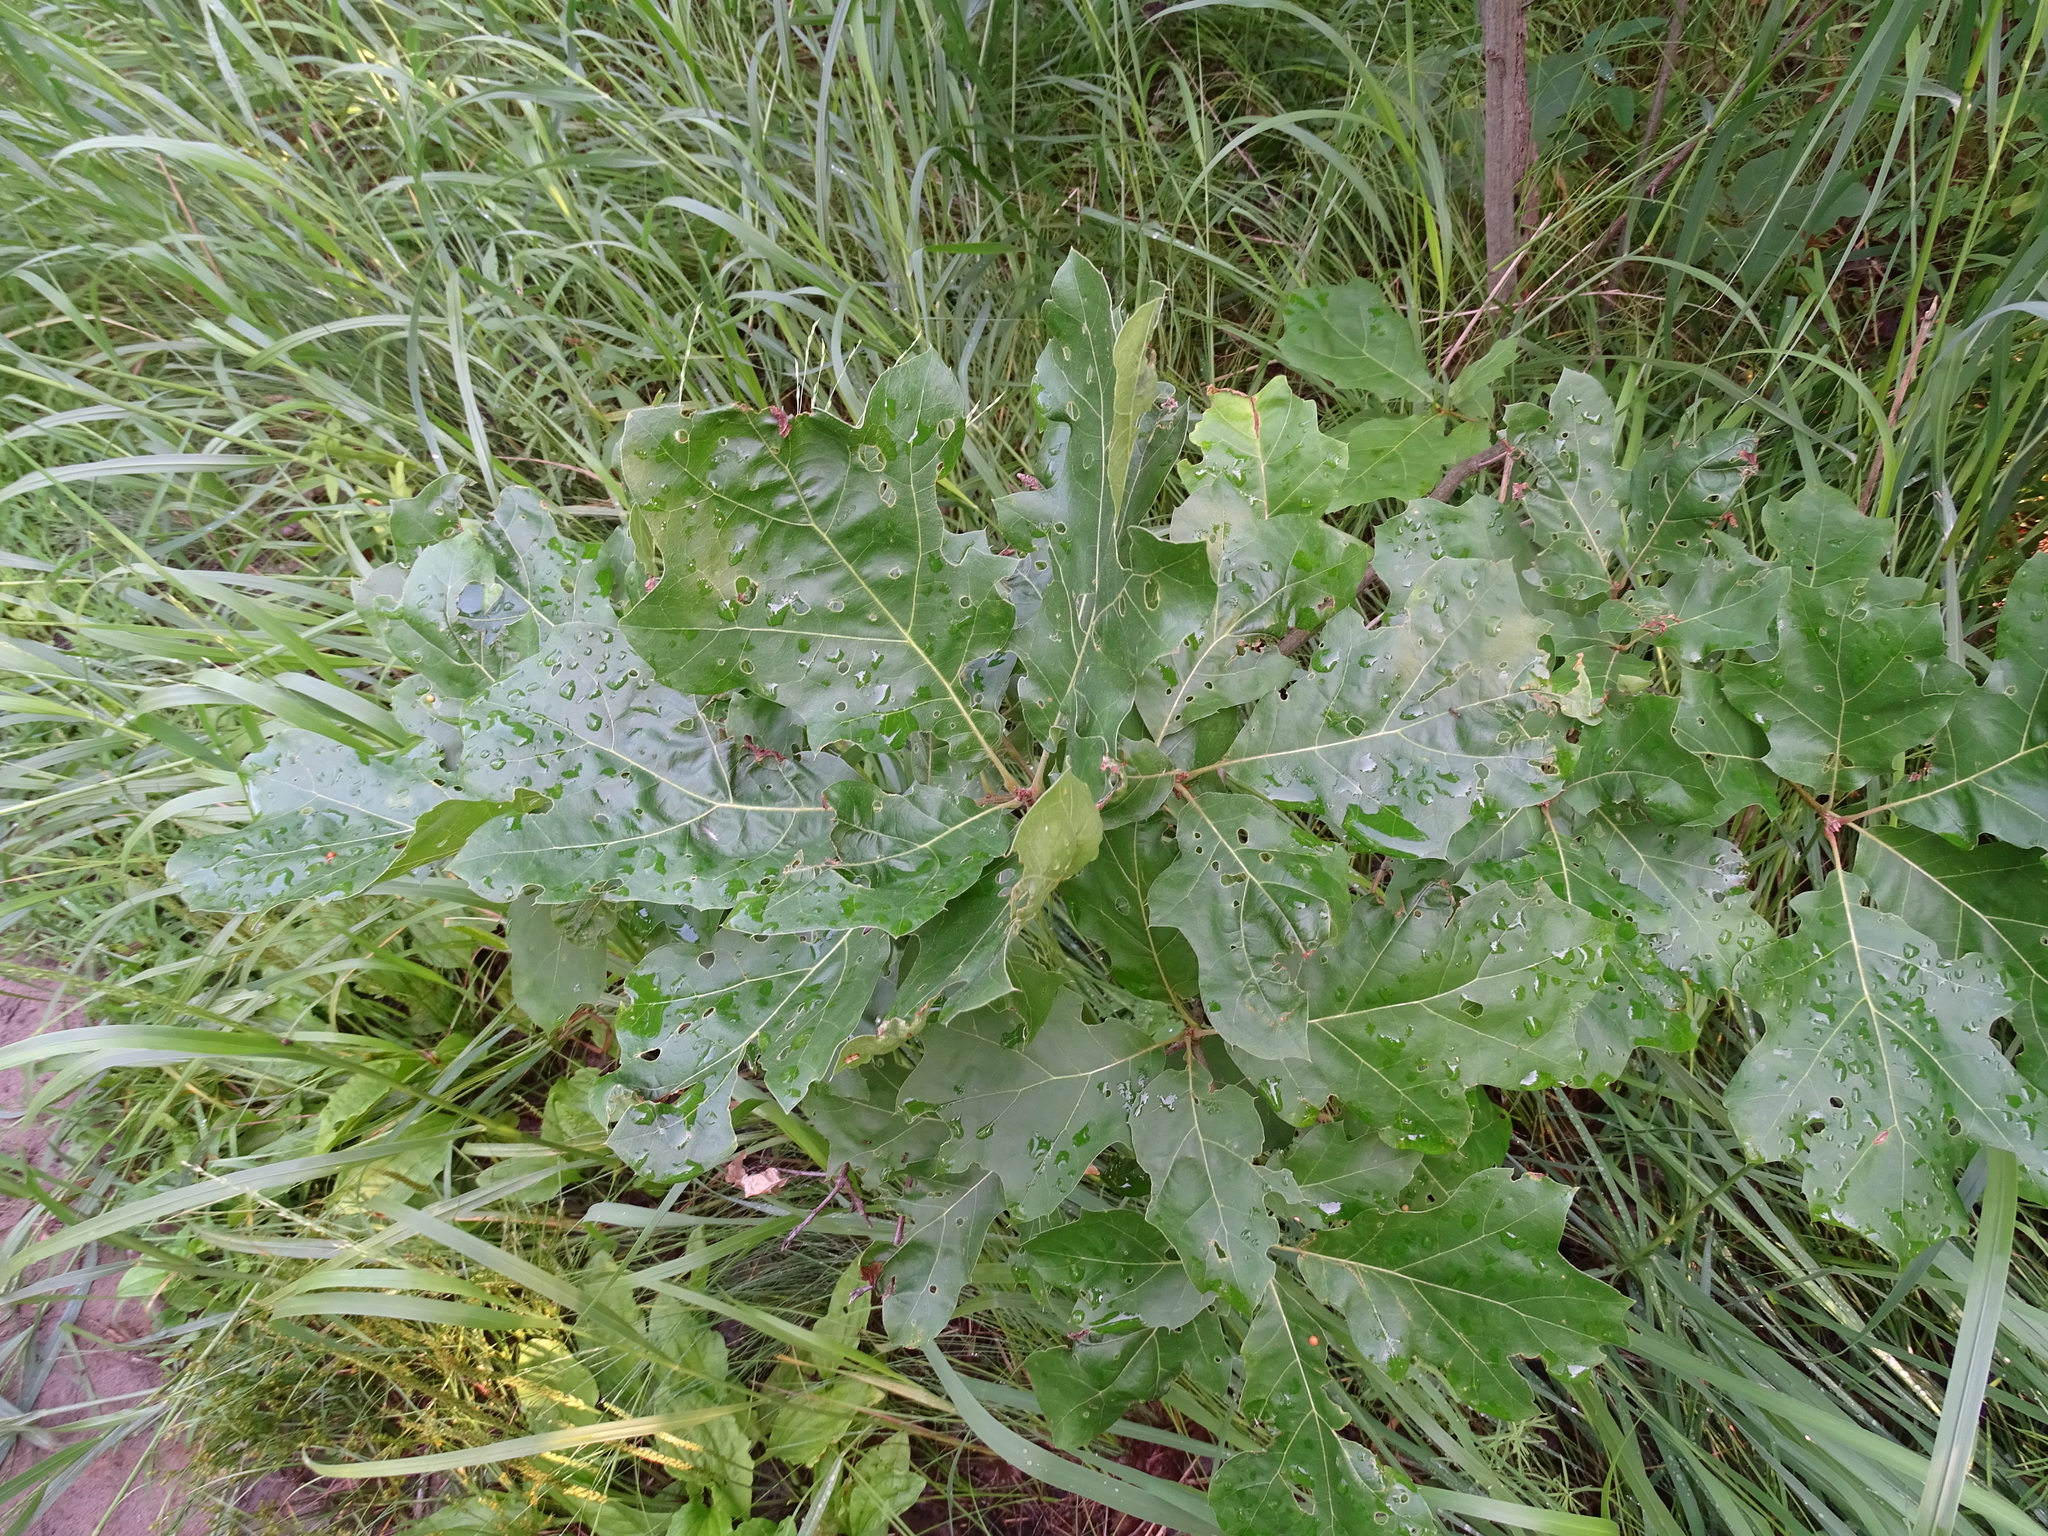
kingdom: Plantae
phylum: Tracheophyta
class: Magnoliopsida
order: Fagales
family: Fagaceae
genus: Quercus
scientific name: Quercus velutina
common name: Black oak
